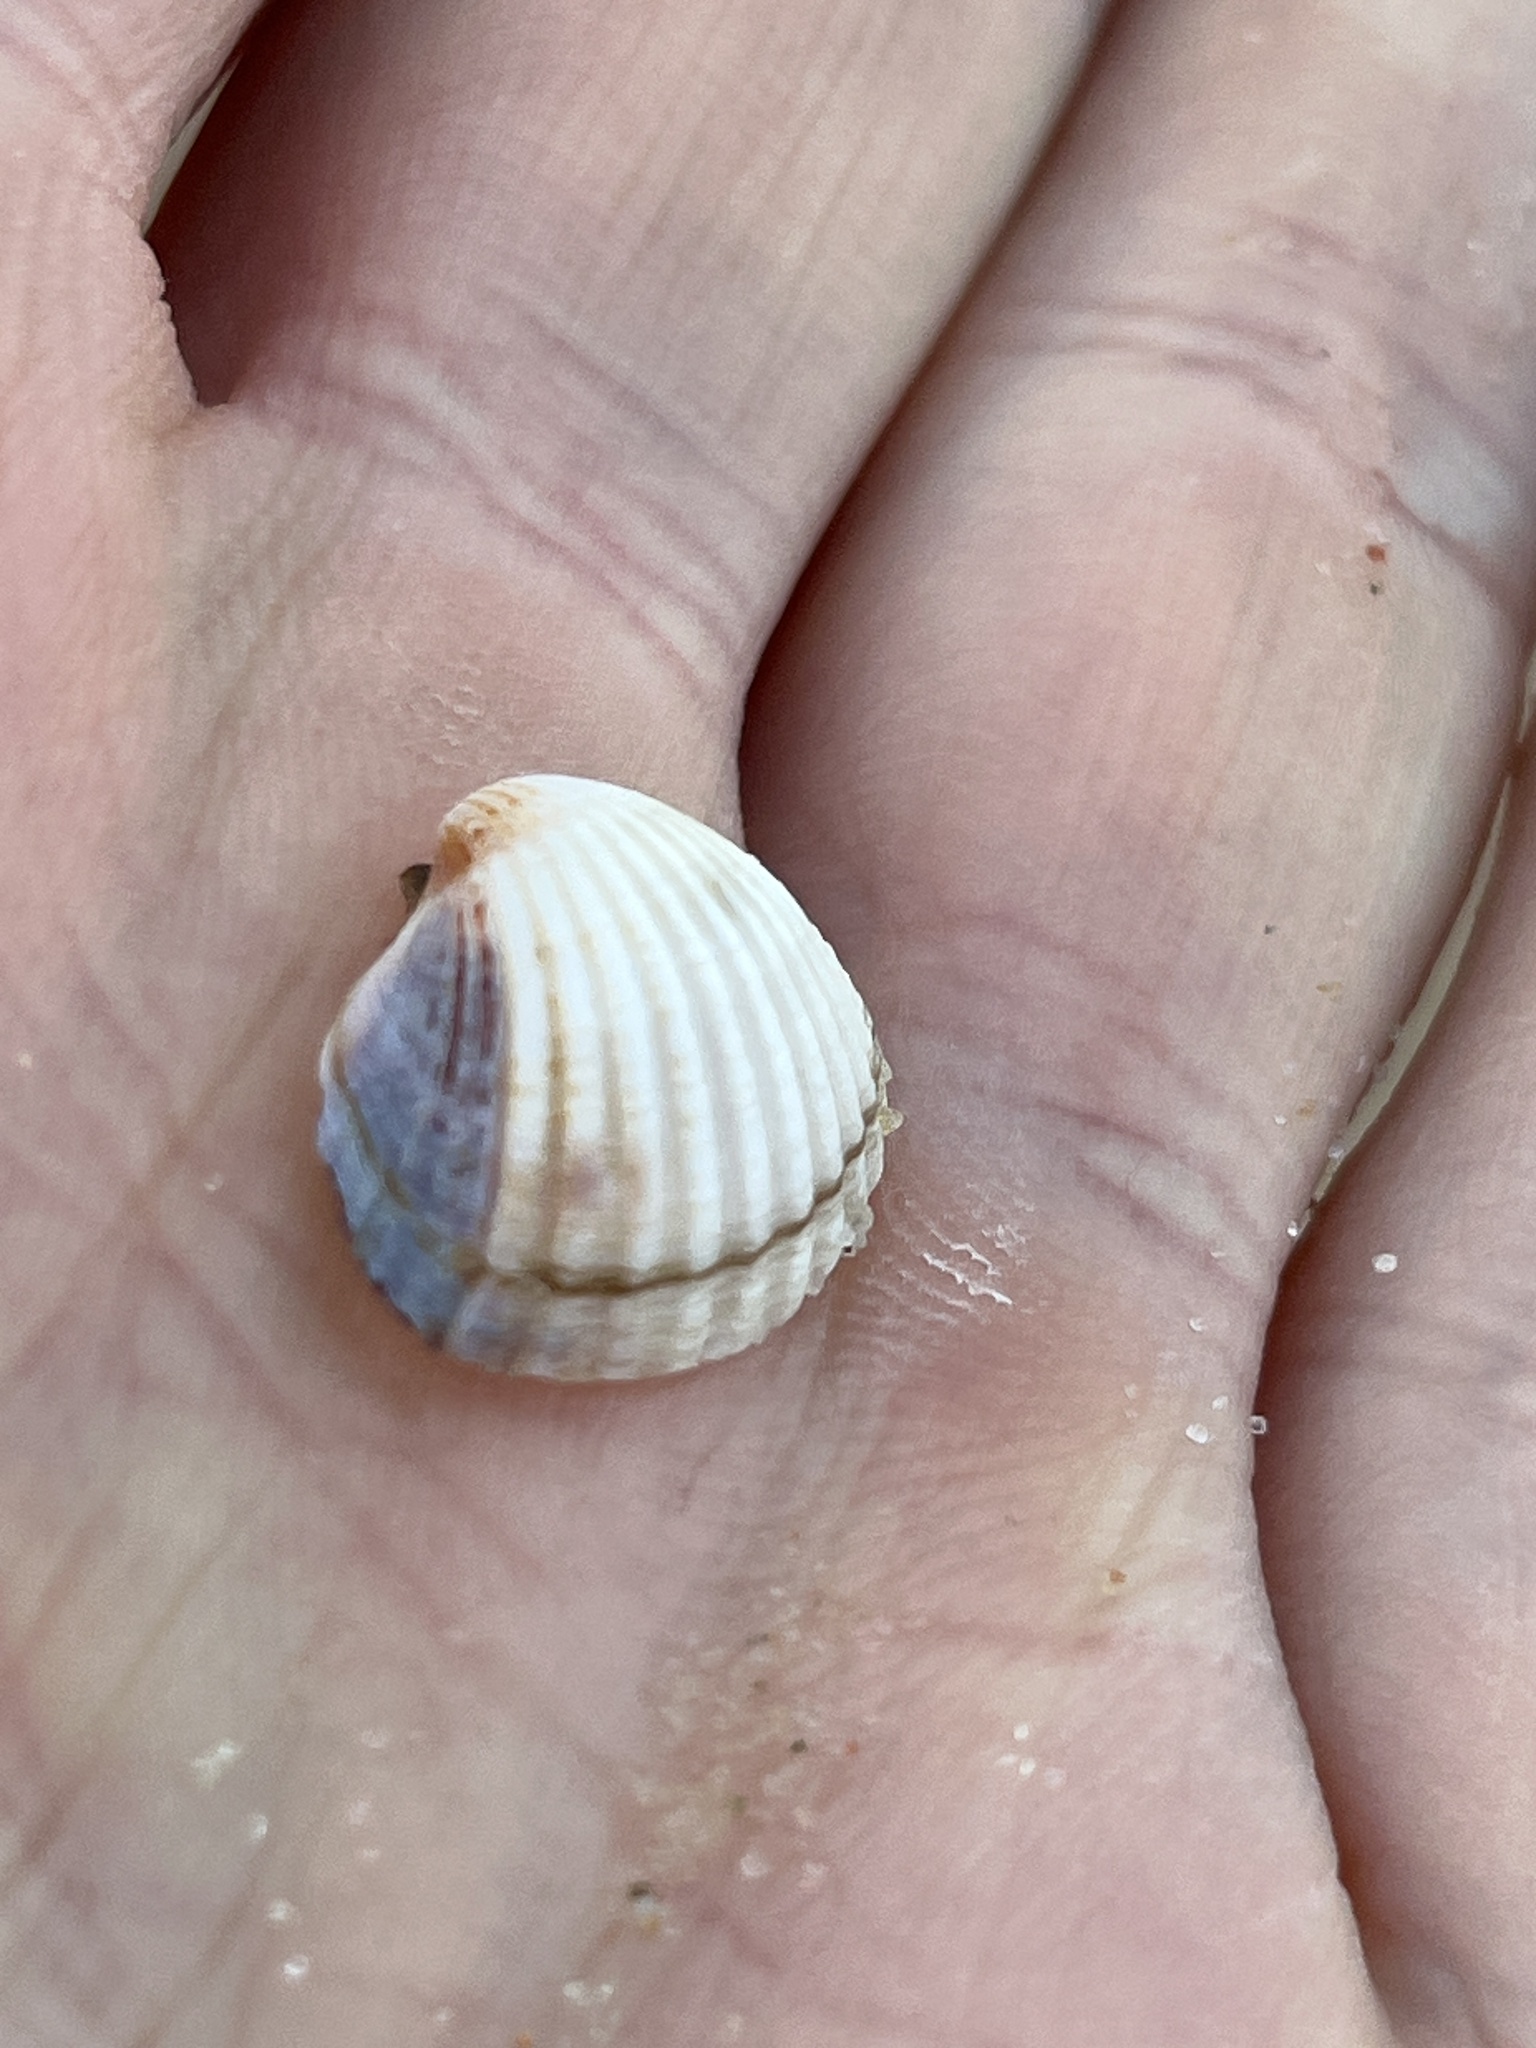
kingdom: Animalia
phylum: Mollusca
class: Bivalvia
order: Cardiida
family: Cardiidae
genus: Cerastoderma
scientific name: Cerastoderma glaucum
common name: Lagoon cockle
